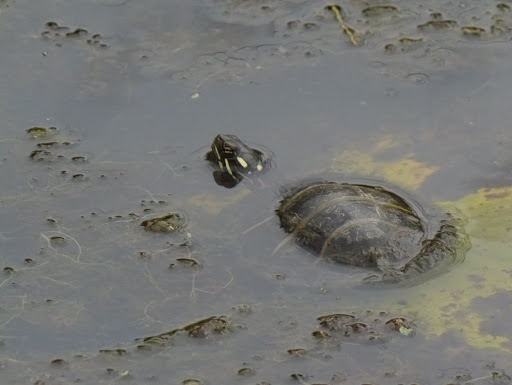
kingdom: Animalia
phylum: Chordata
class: Testudines
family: Emydidae
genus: Chrysemys
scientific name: Chrysemys picta
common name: Painted turtle
